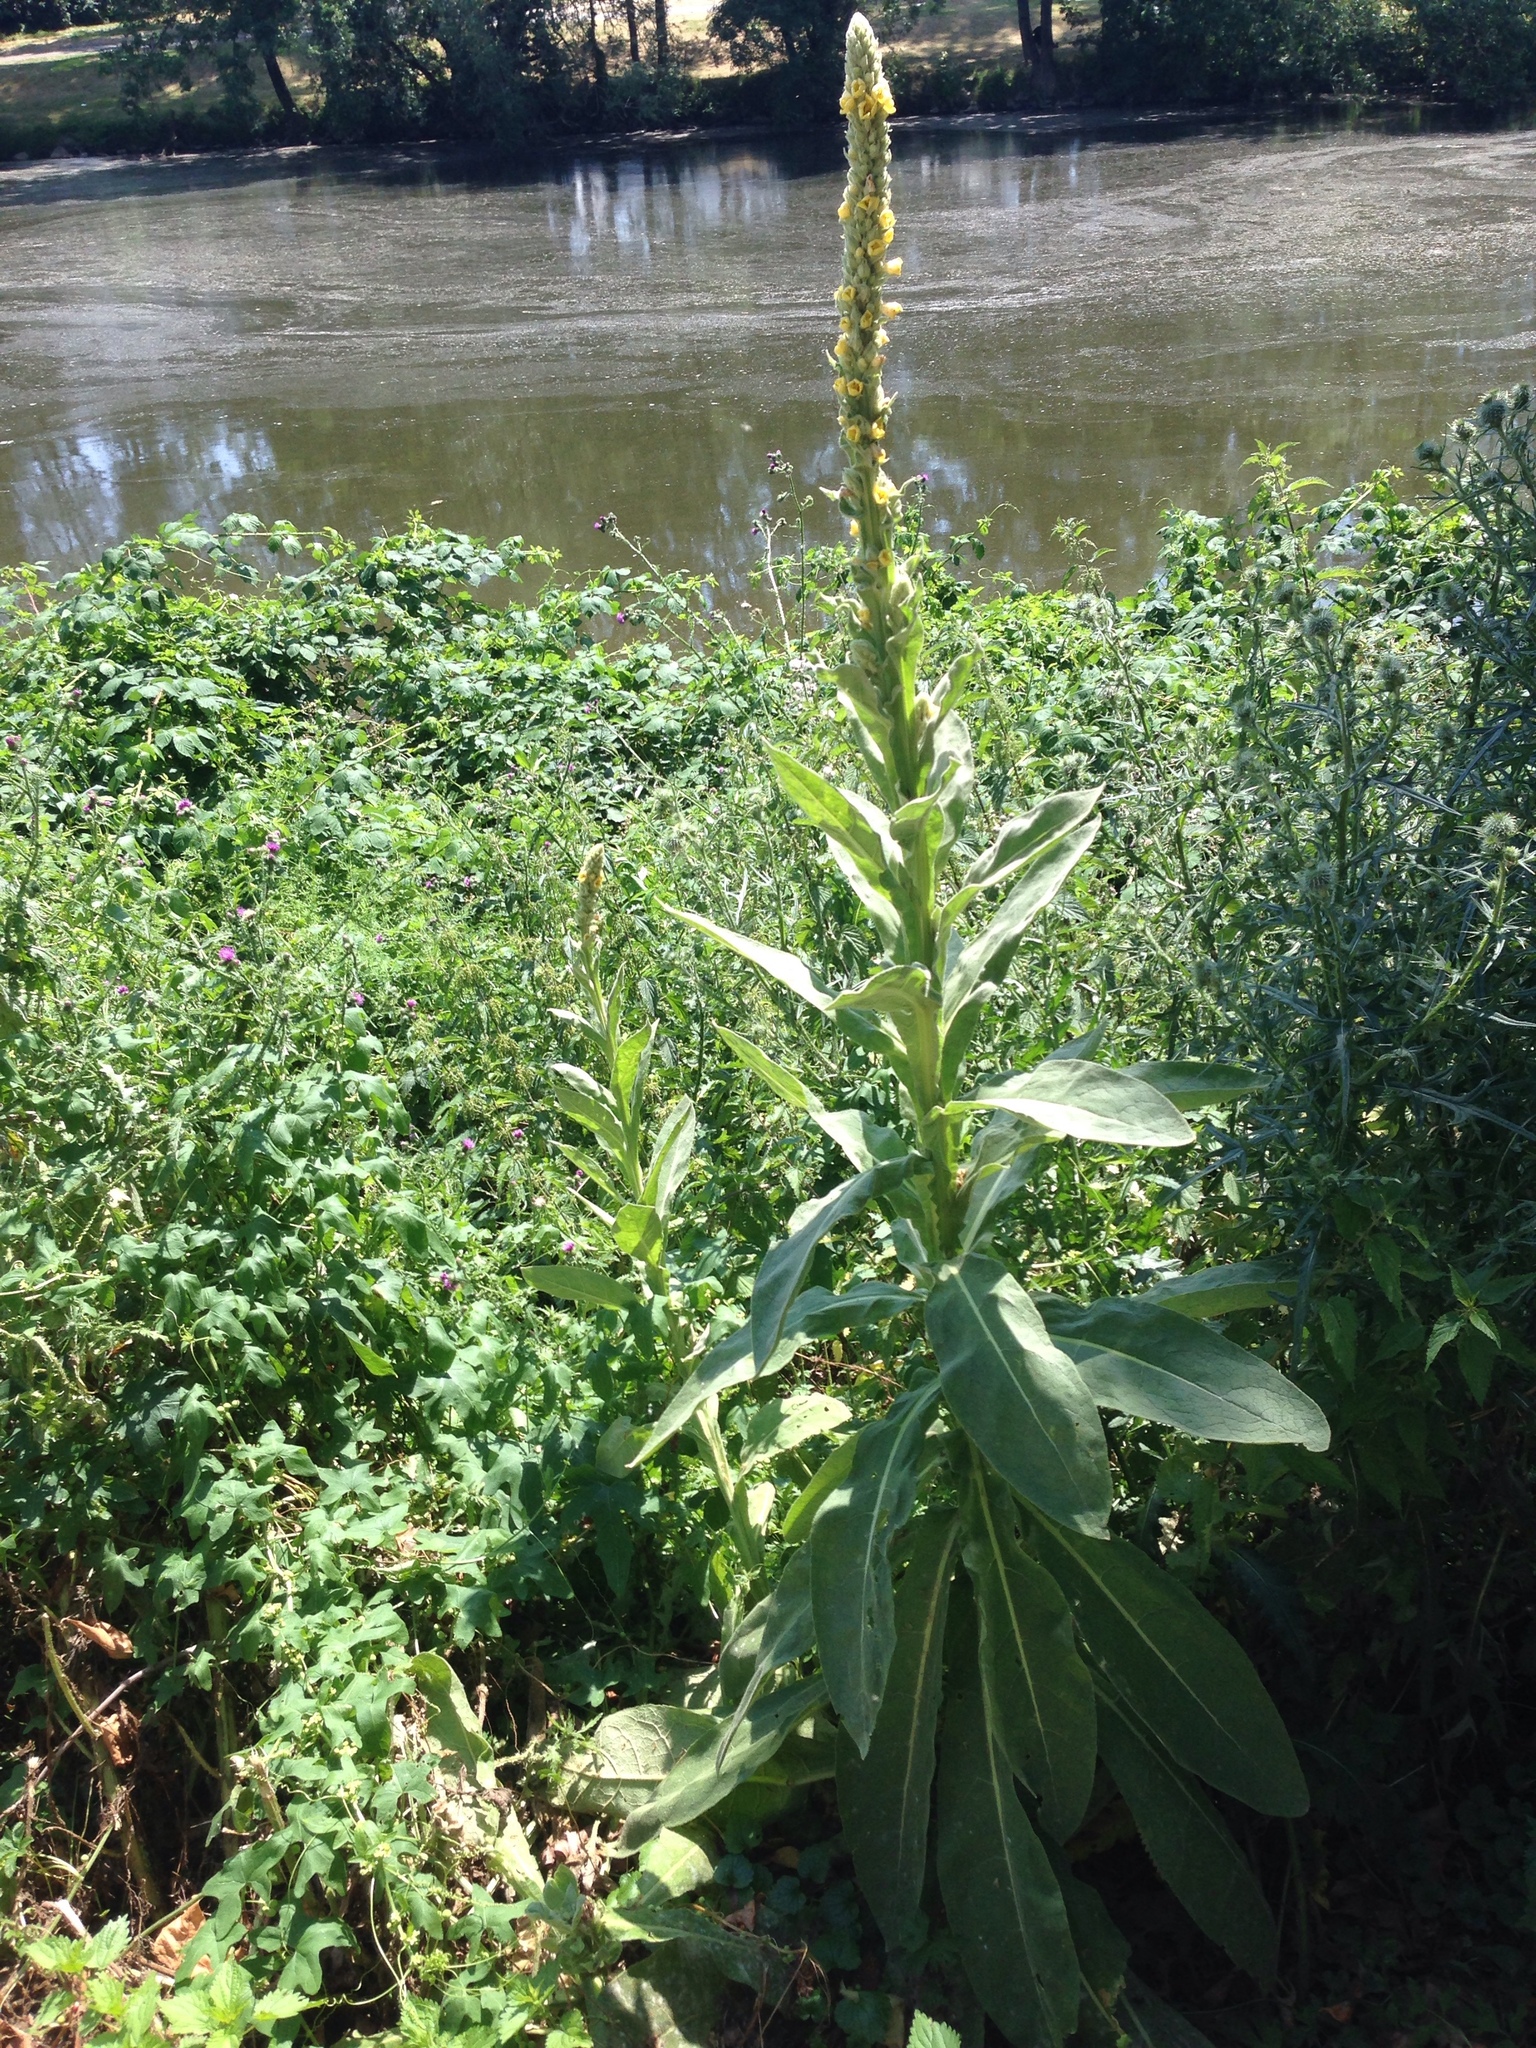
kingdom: Plantae
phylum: Tracheophyta
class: Magnoliopsida
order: Lamiales
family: Scrophulariaceae
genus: Verbascum
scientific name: Verbascum thapsus
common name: Common mullein
